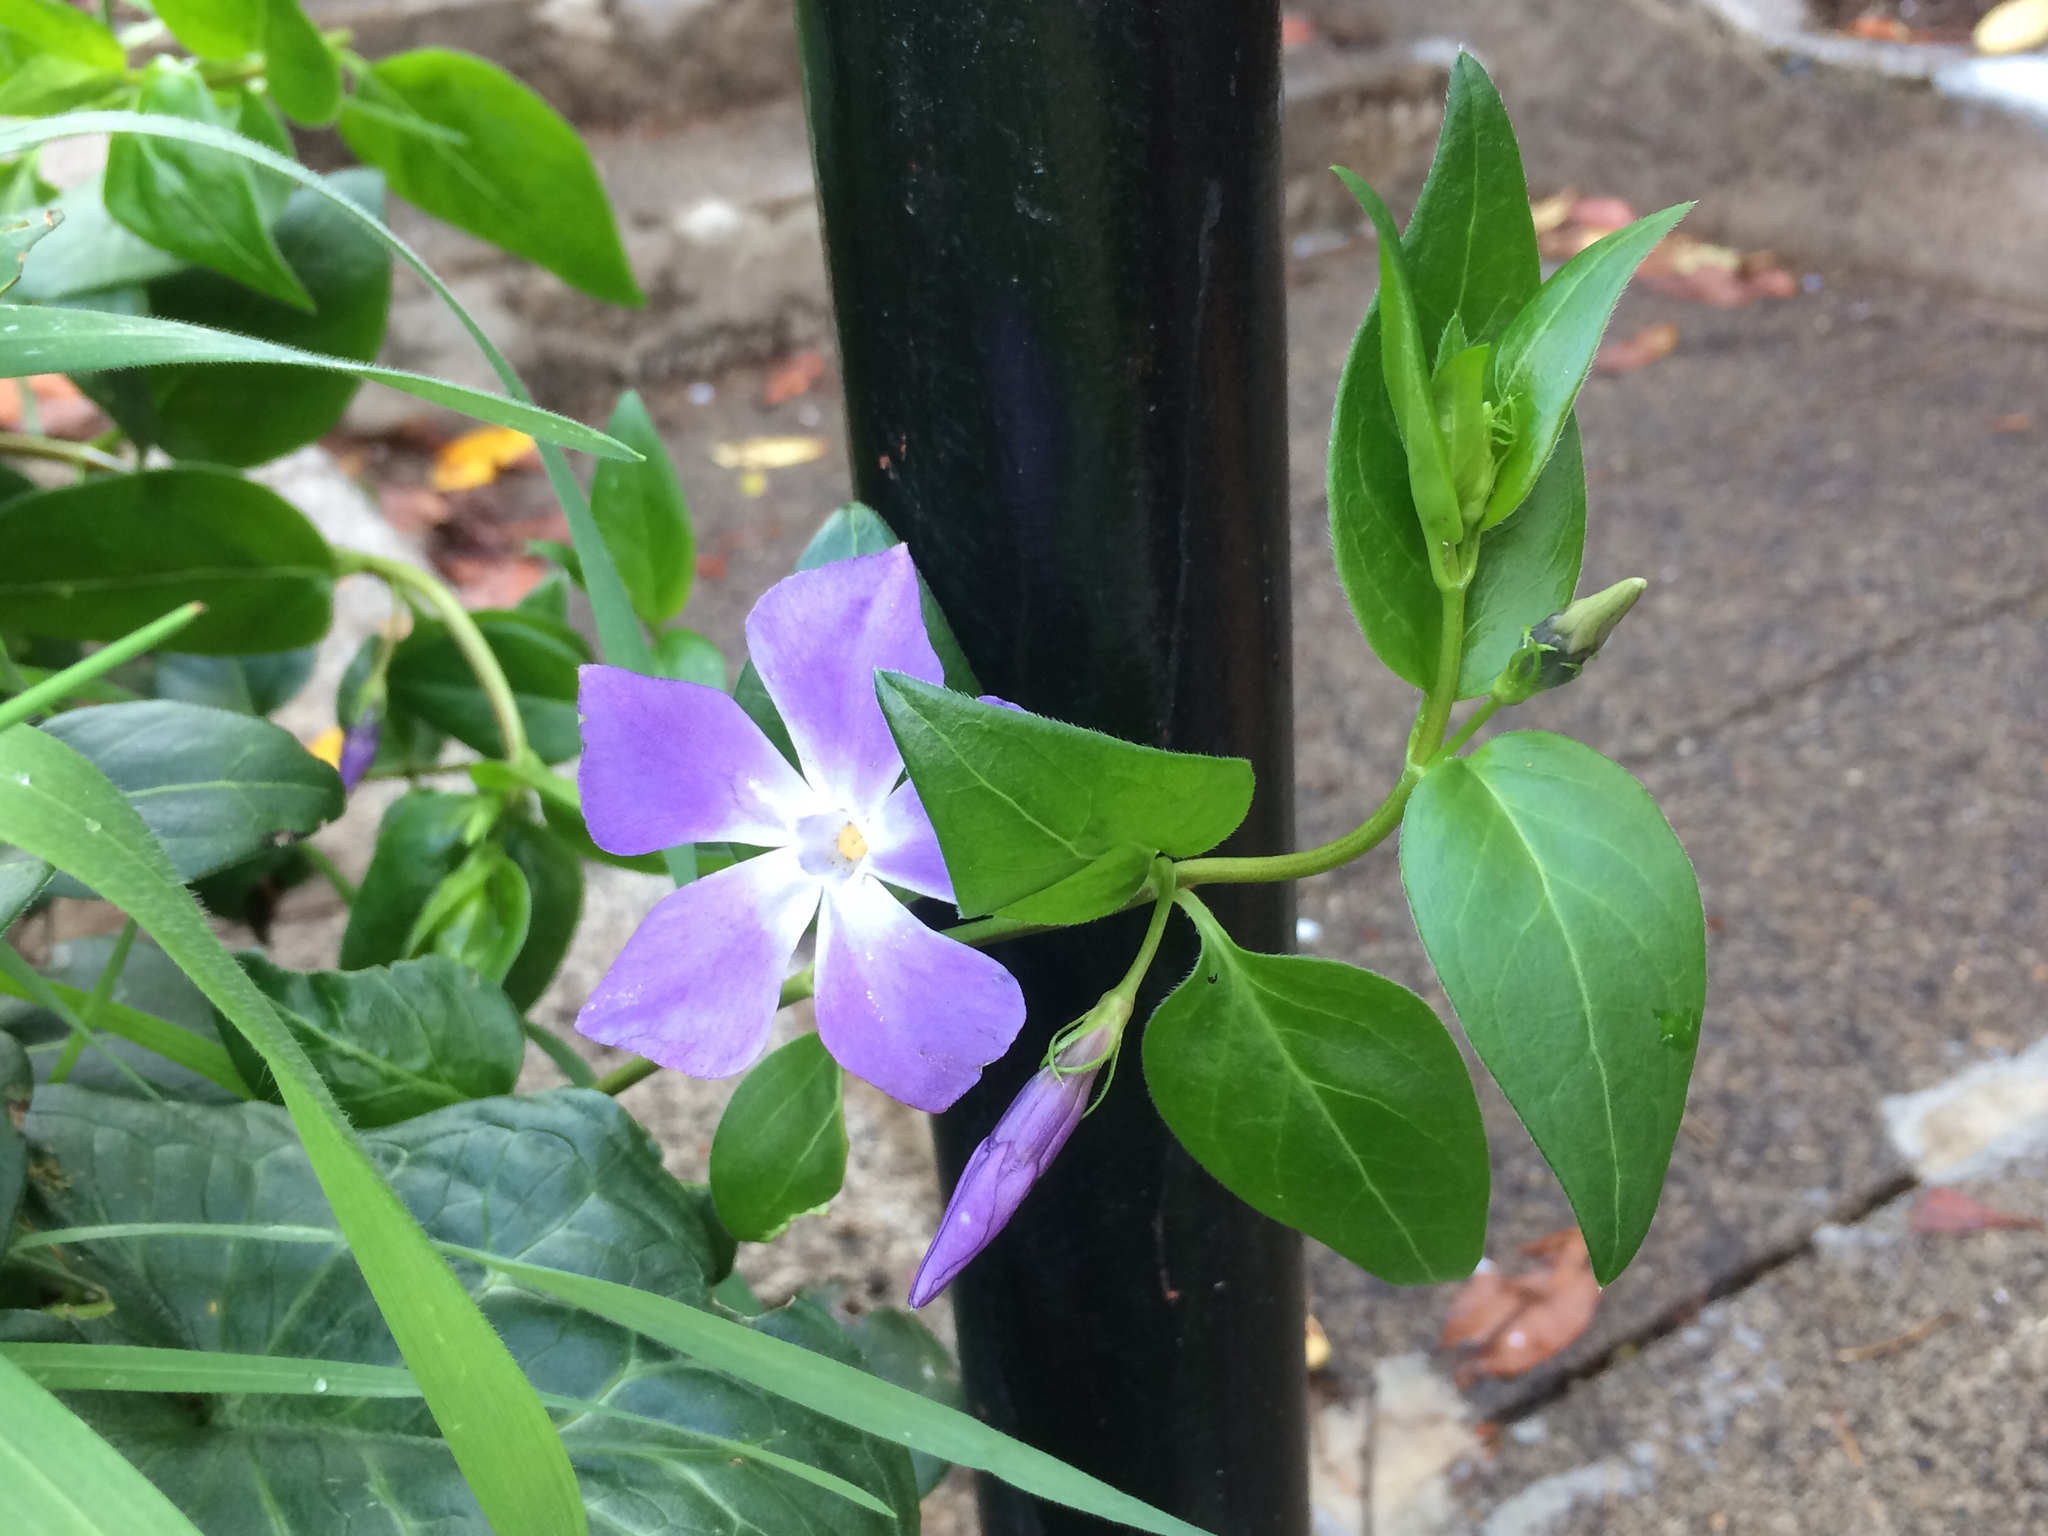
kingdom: Plantae
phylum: Tracheophyta
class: Magnoliopsida
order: Gentianales
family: Apocynaceae
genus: Vinca
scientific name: Vinca major
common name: Greater periwinkle
